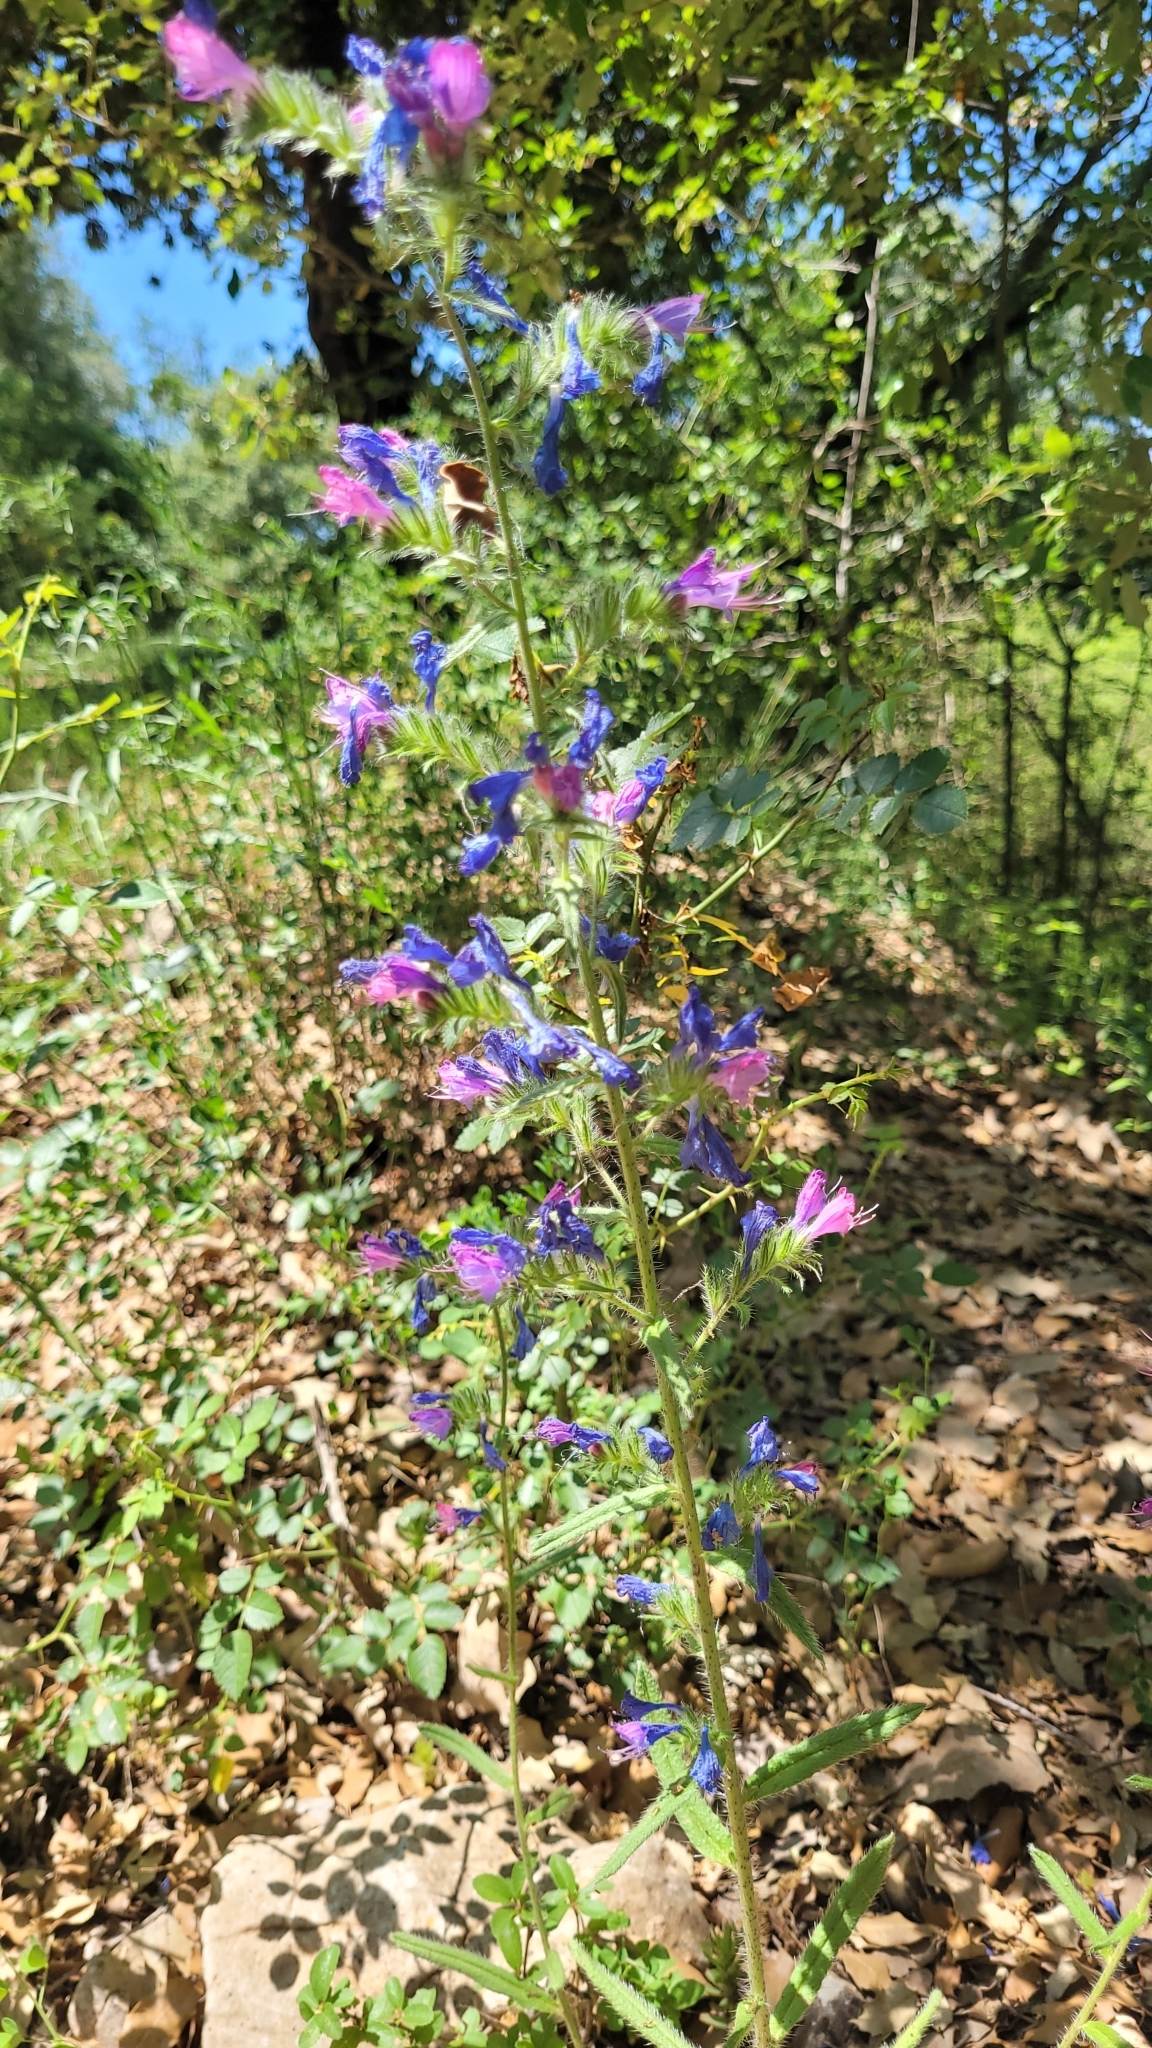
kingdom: Plantae
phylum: Tracheophyta
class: Magnoliopsida
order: Boraginales
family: Boraginaceae
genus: Echium
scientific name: Echium vulgare
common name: Common viper's bugloss
